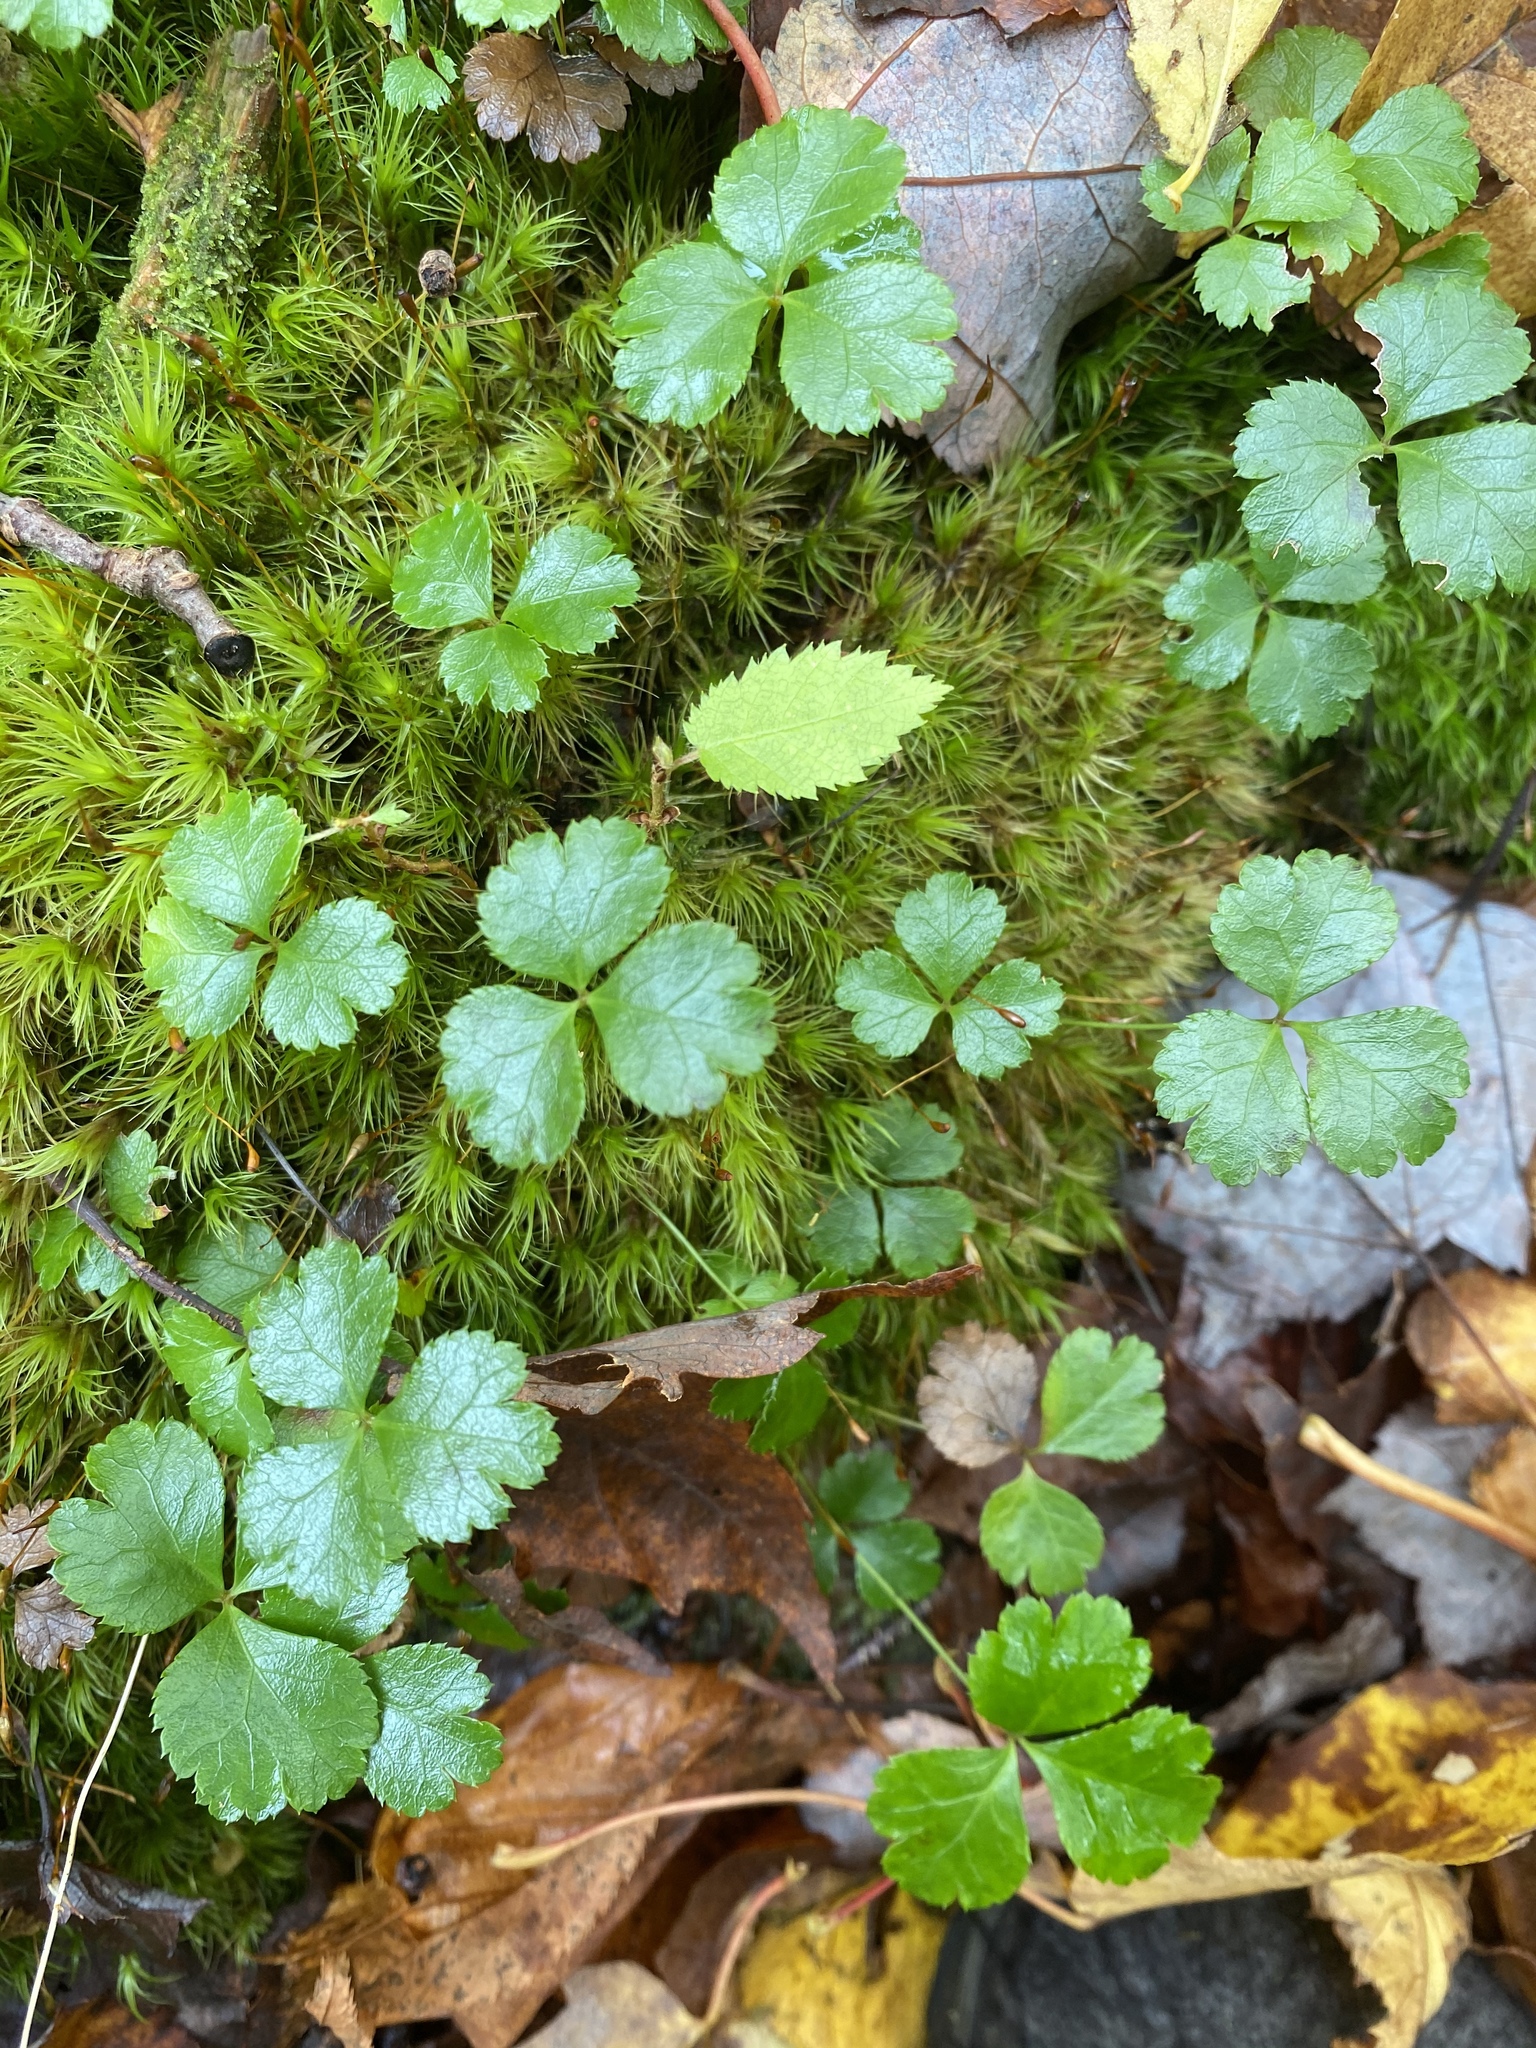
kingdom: Plantae
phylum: Tracheophyta
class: Magnoliopsida
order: Ranunculales
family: Ranunculaceae
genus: Coptis
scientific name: Coptis trifolia
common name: Canker-root
